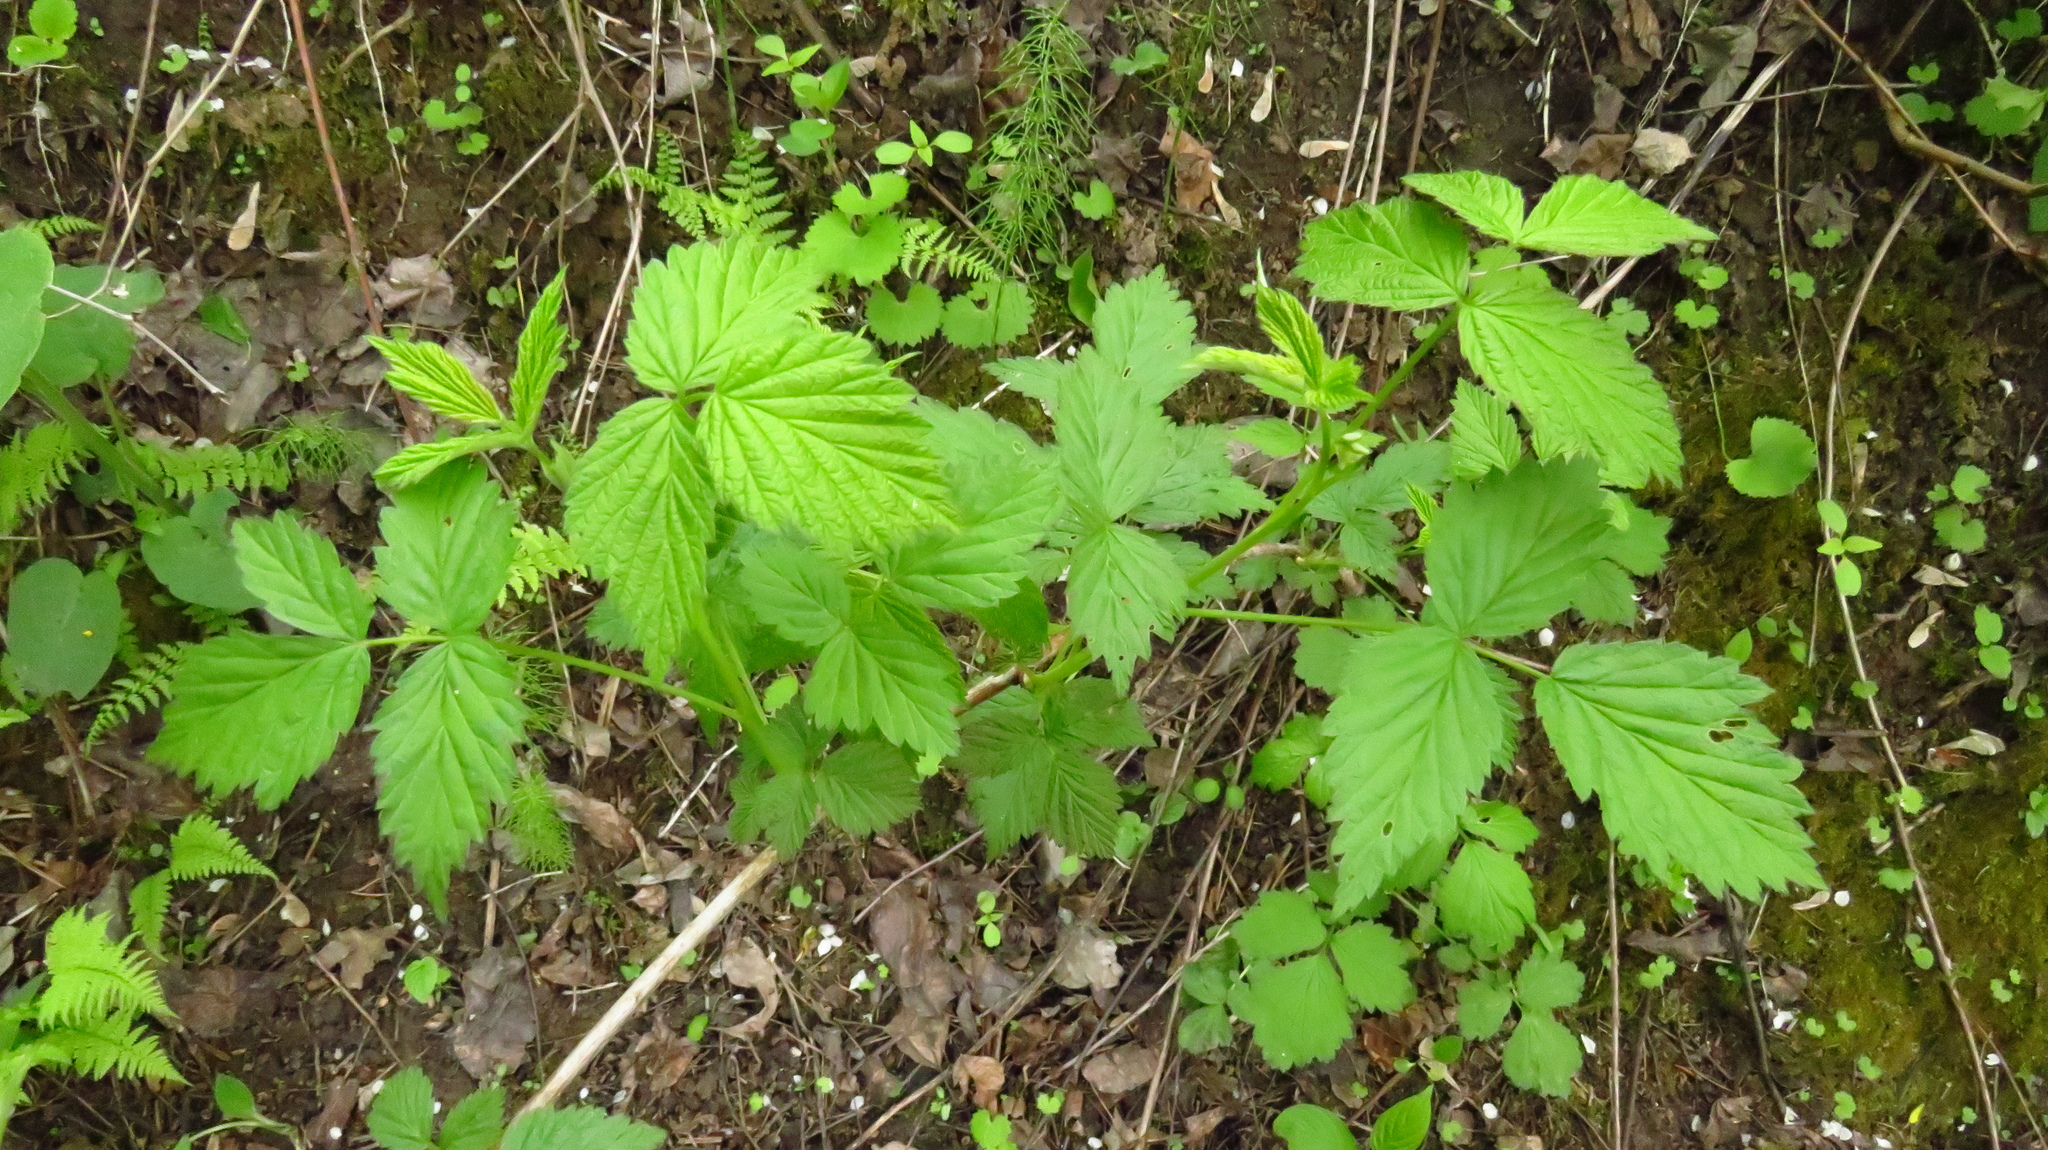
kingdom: Plantae
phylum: Tracheophyta
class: Magnoliopsida
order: Rosales
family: Rosaceae
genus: Rubus
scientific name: Rubus idaeus
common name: Raspberry
